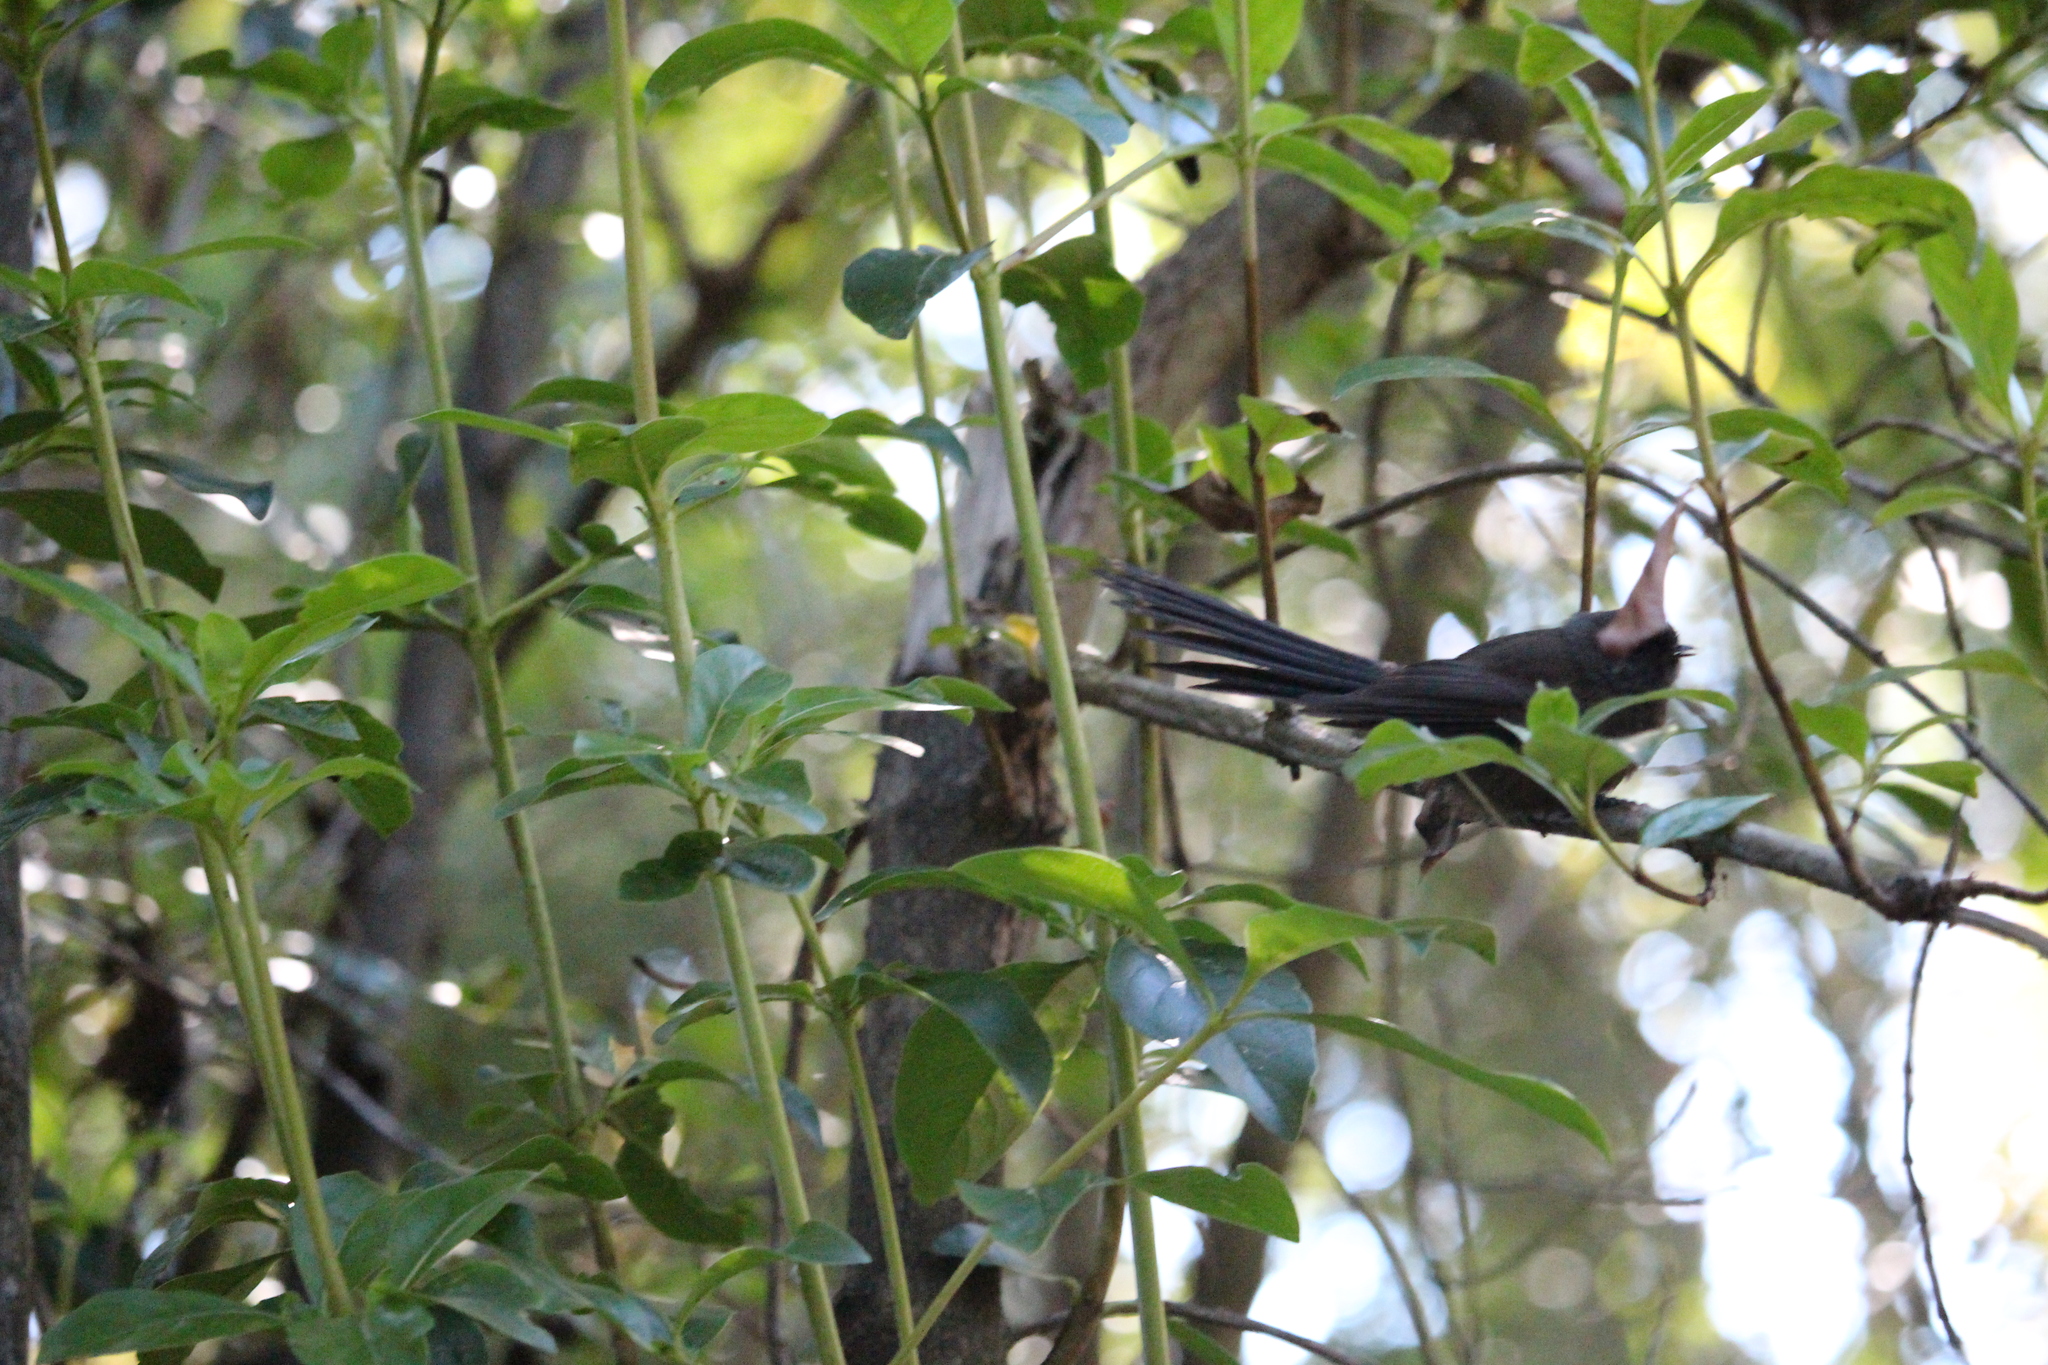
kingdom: Animalia
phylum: Chordata
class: Aves
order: Passeriformes
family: Rhipiduridae
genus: Rhipidura
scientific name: Rhipidura fuliginosa
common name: New zealand fantail
